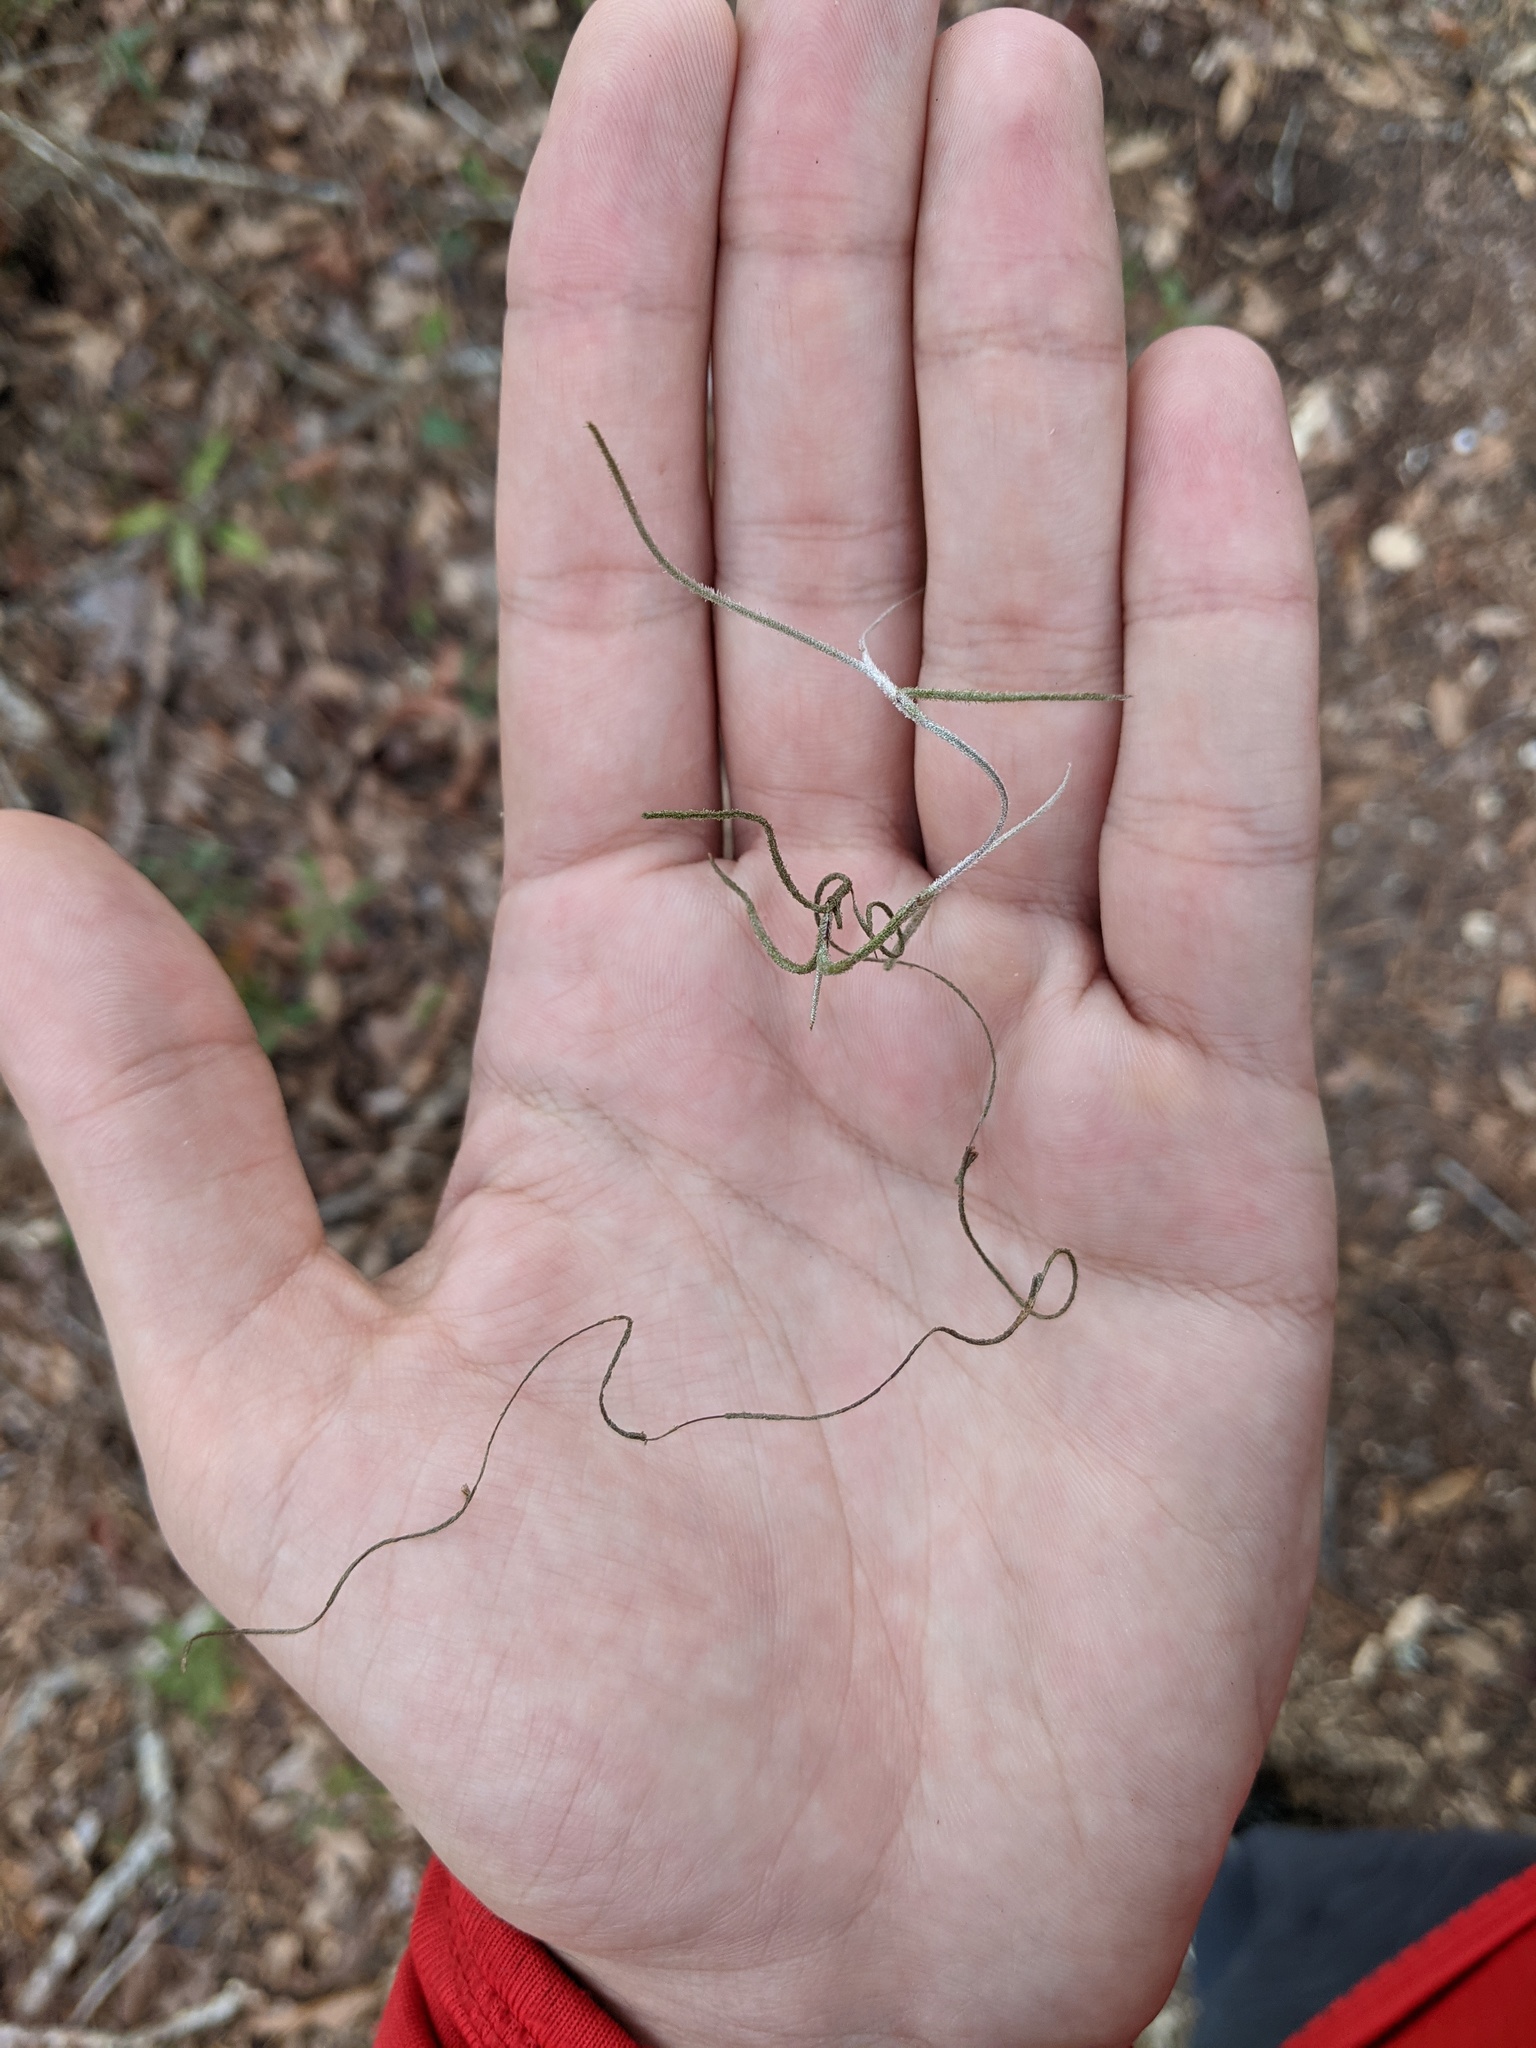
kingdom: Plantae
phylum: Tracheophyta
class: Liliopsida
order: Poales
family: Bromeliaceae
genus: Tillandsia
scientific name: Tillandsia usneoides
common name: Spanish moss
